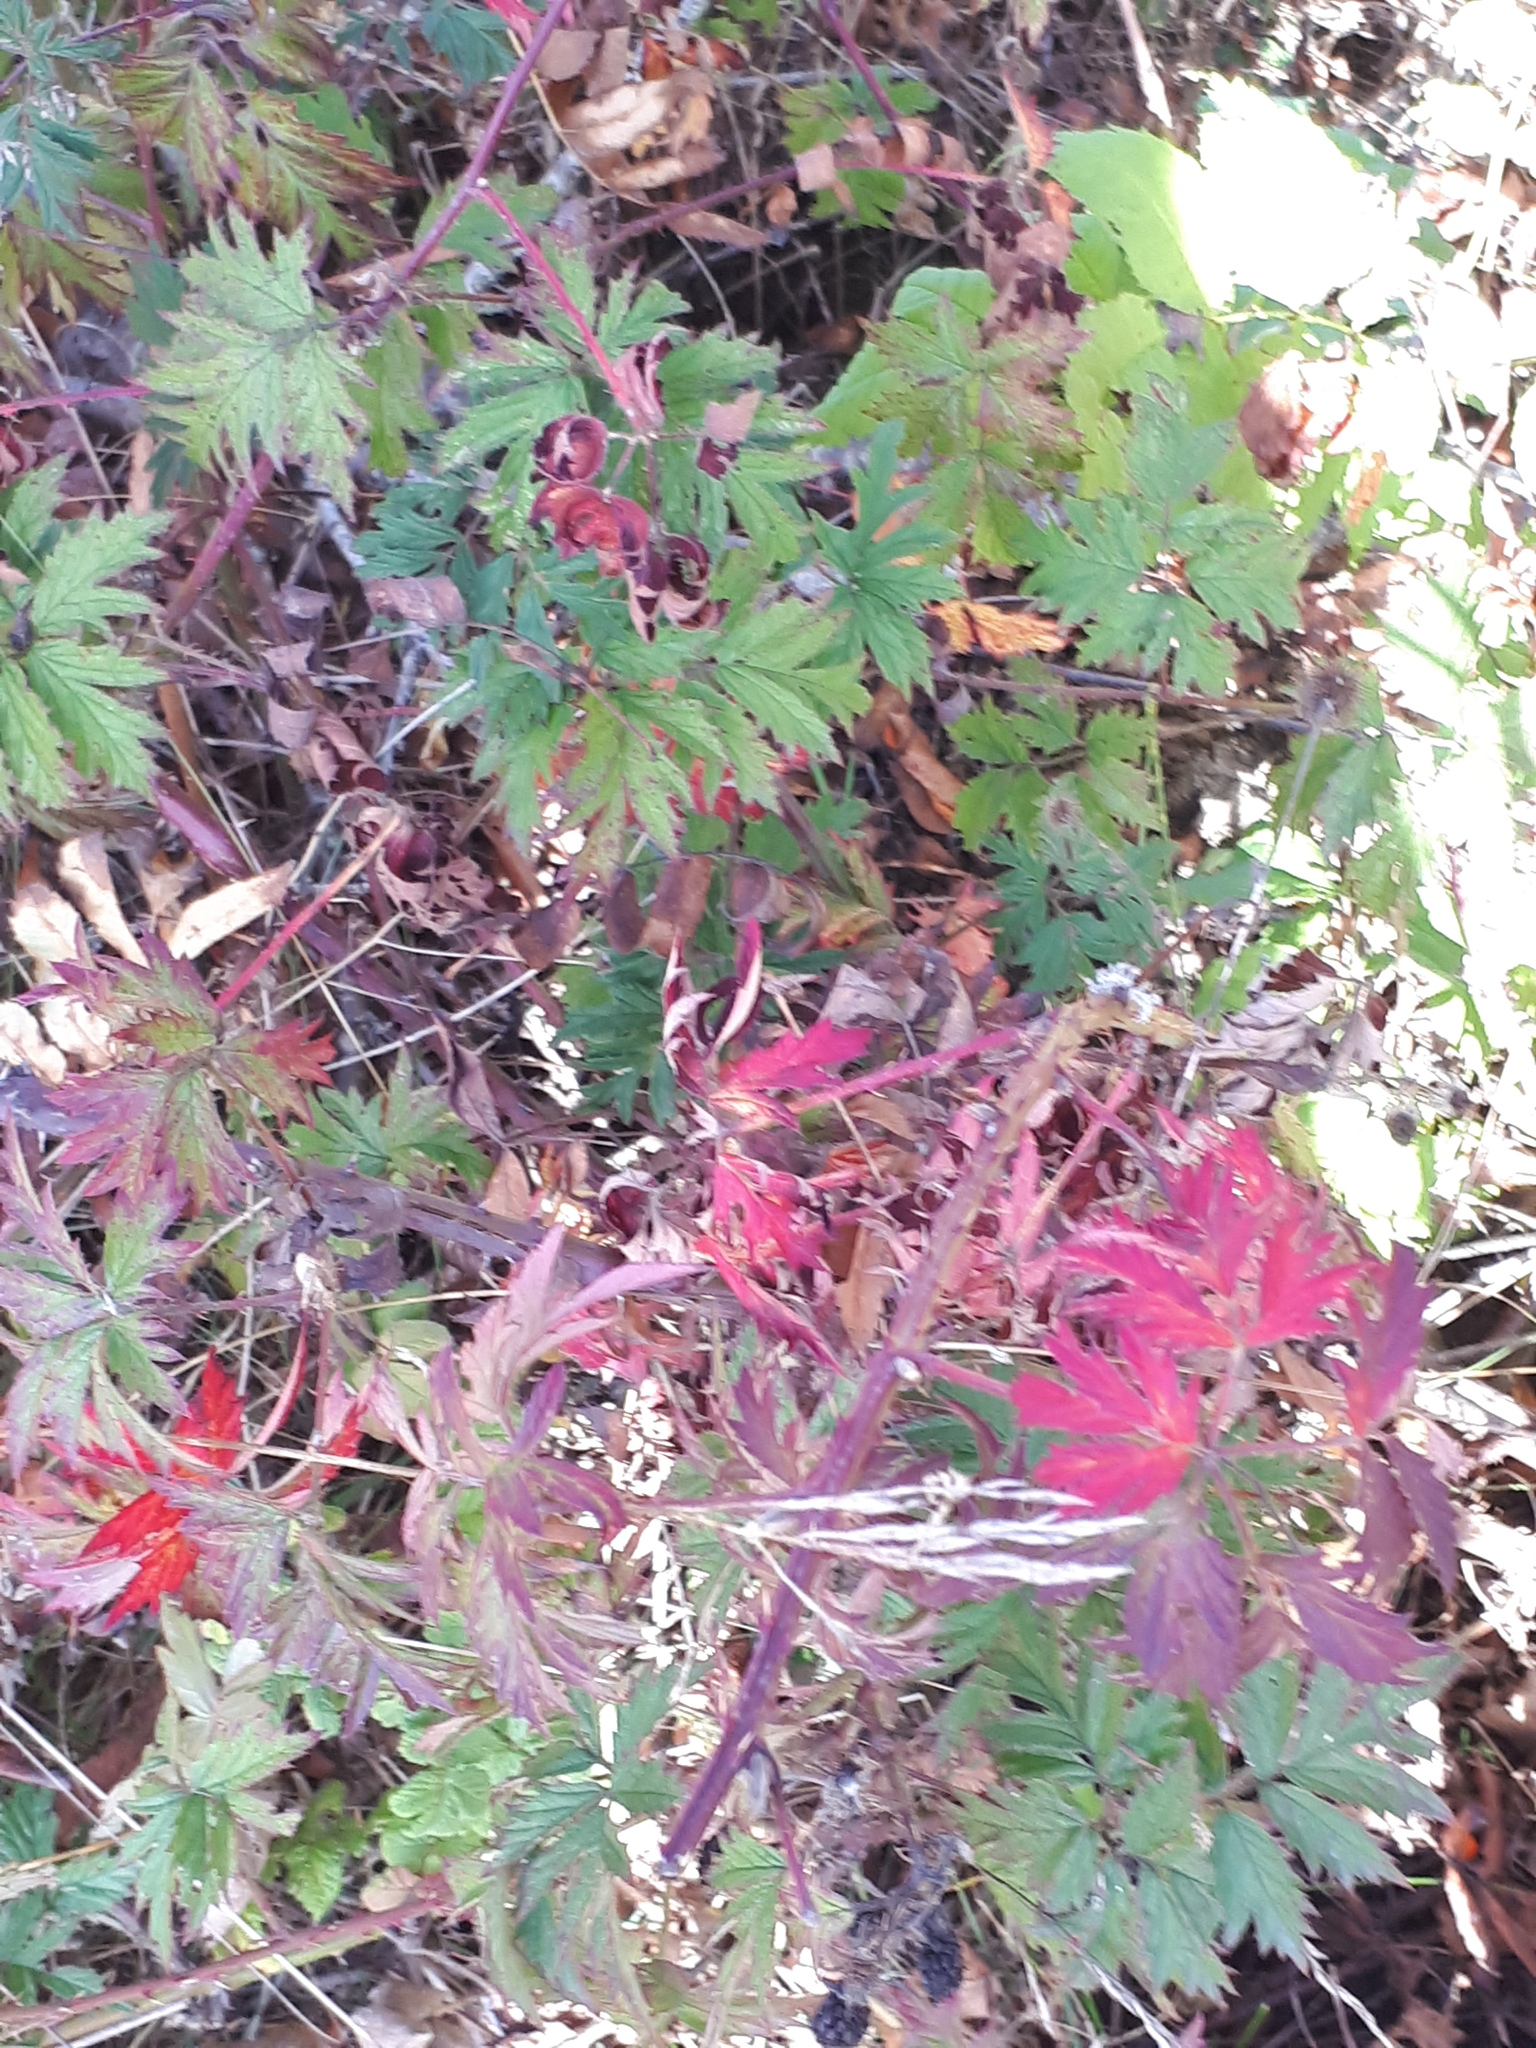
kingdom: Plantae
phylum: Tracheophyta
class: Magnoliopsida
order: Rosales
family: Rosaceae
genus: Rubus
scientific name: Rubus laciniatus
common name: Evergreen blackberry
